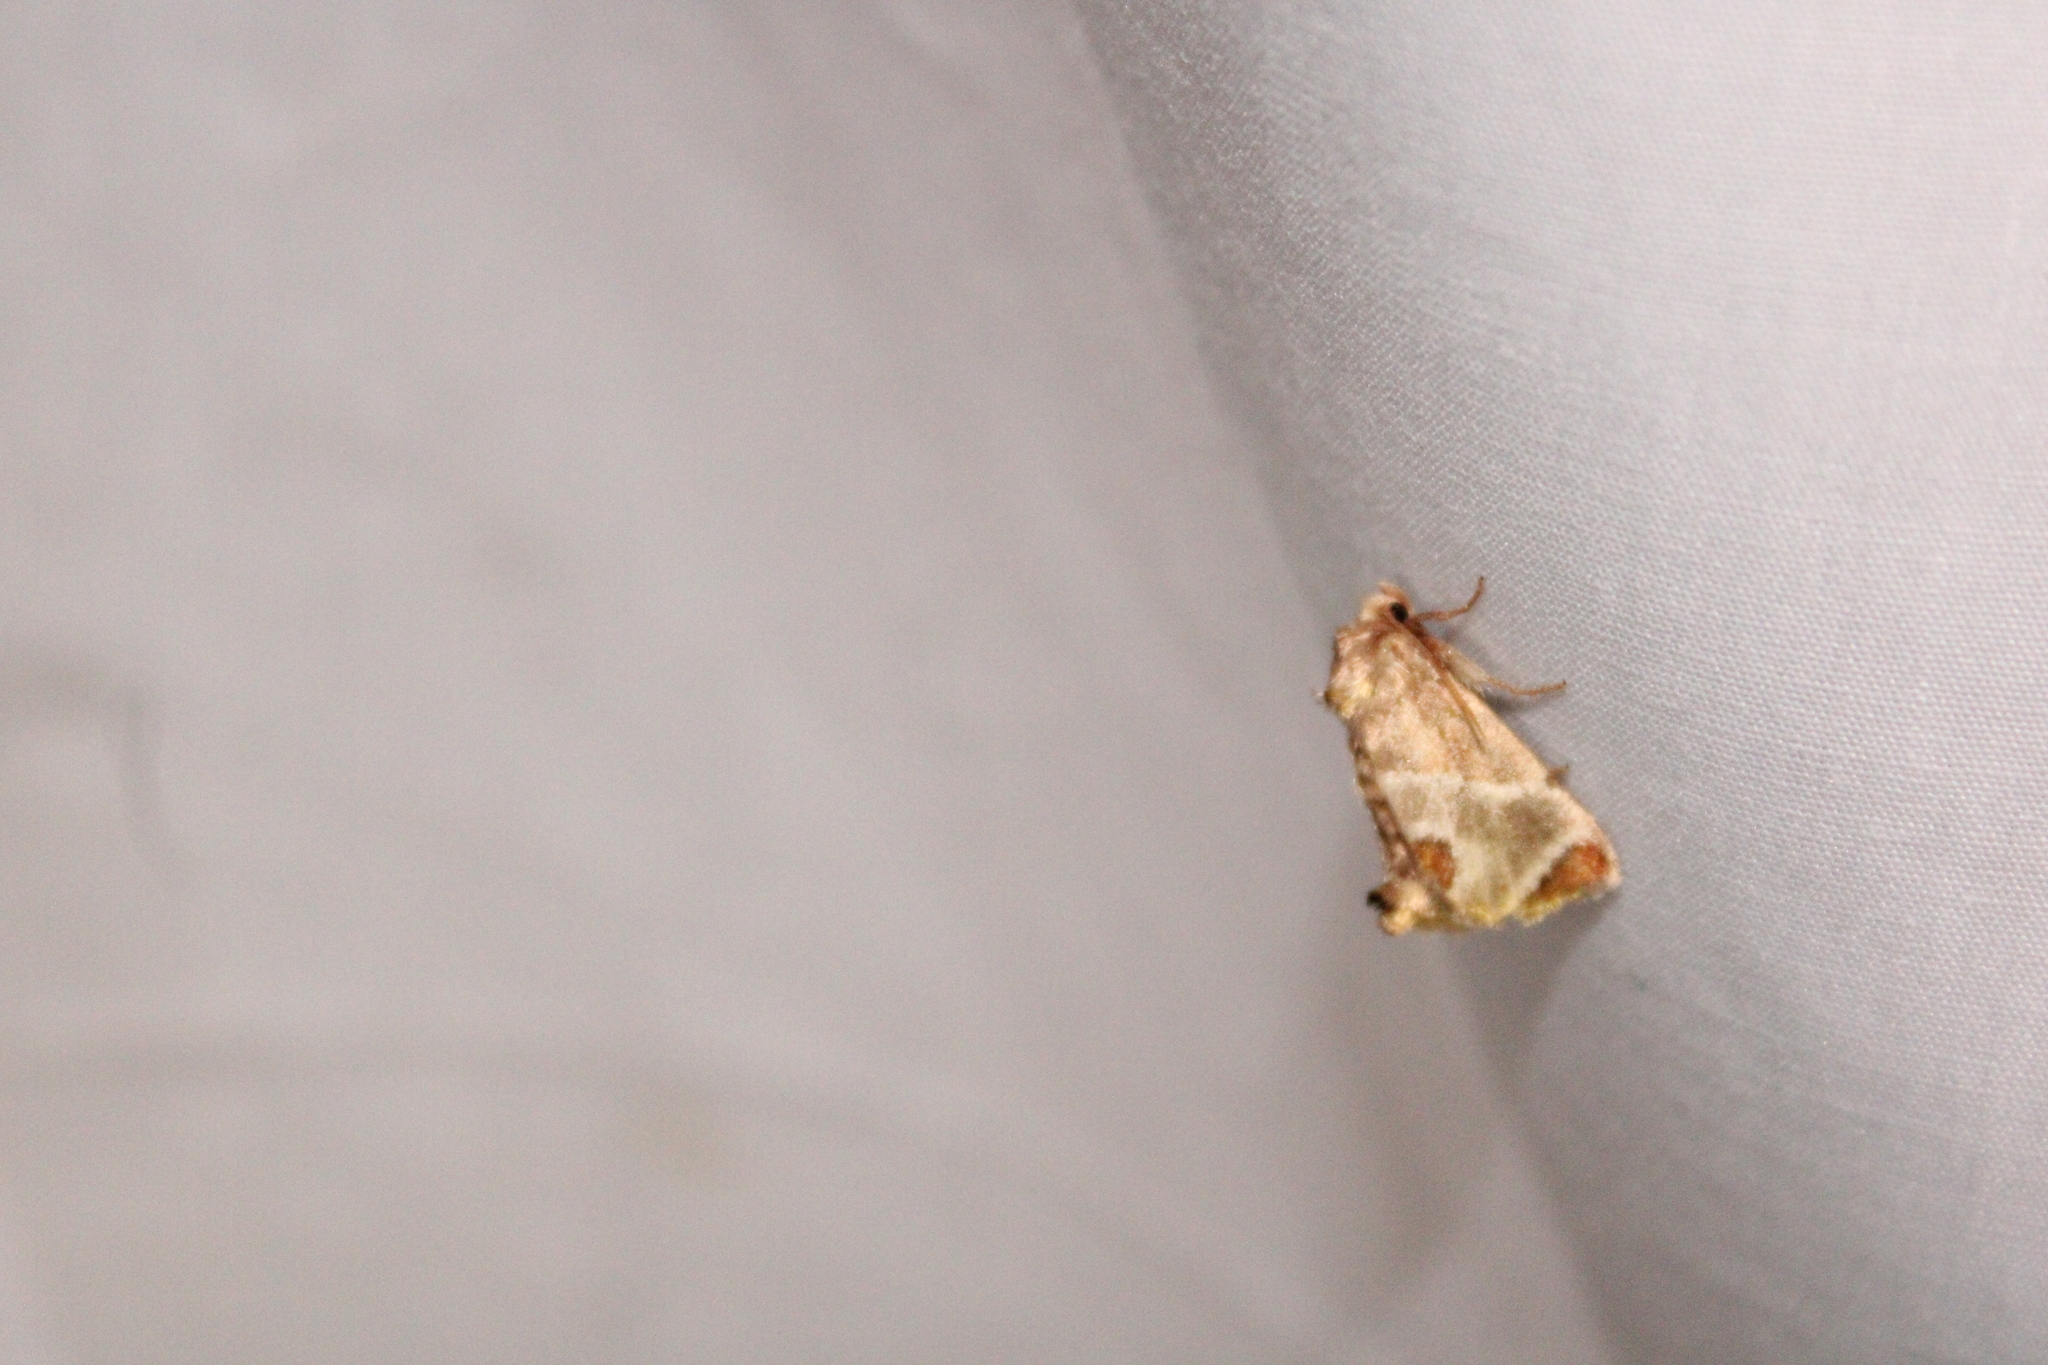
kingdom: Animalia
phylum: Arthropoda
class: Insecta
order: Lepidoptera
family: Limacodidae
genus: Apoda
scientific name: Apoda biguttata
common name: Shagreened slug moth
